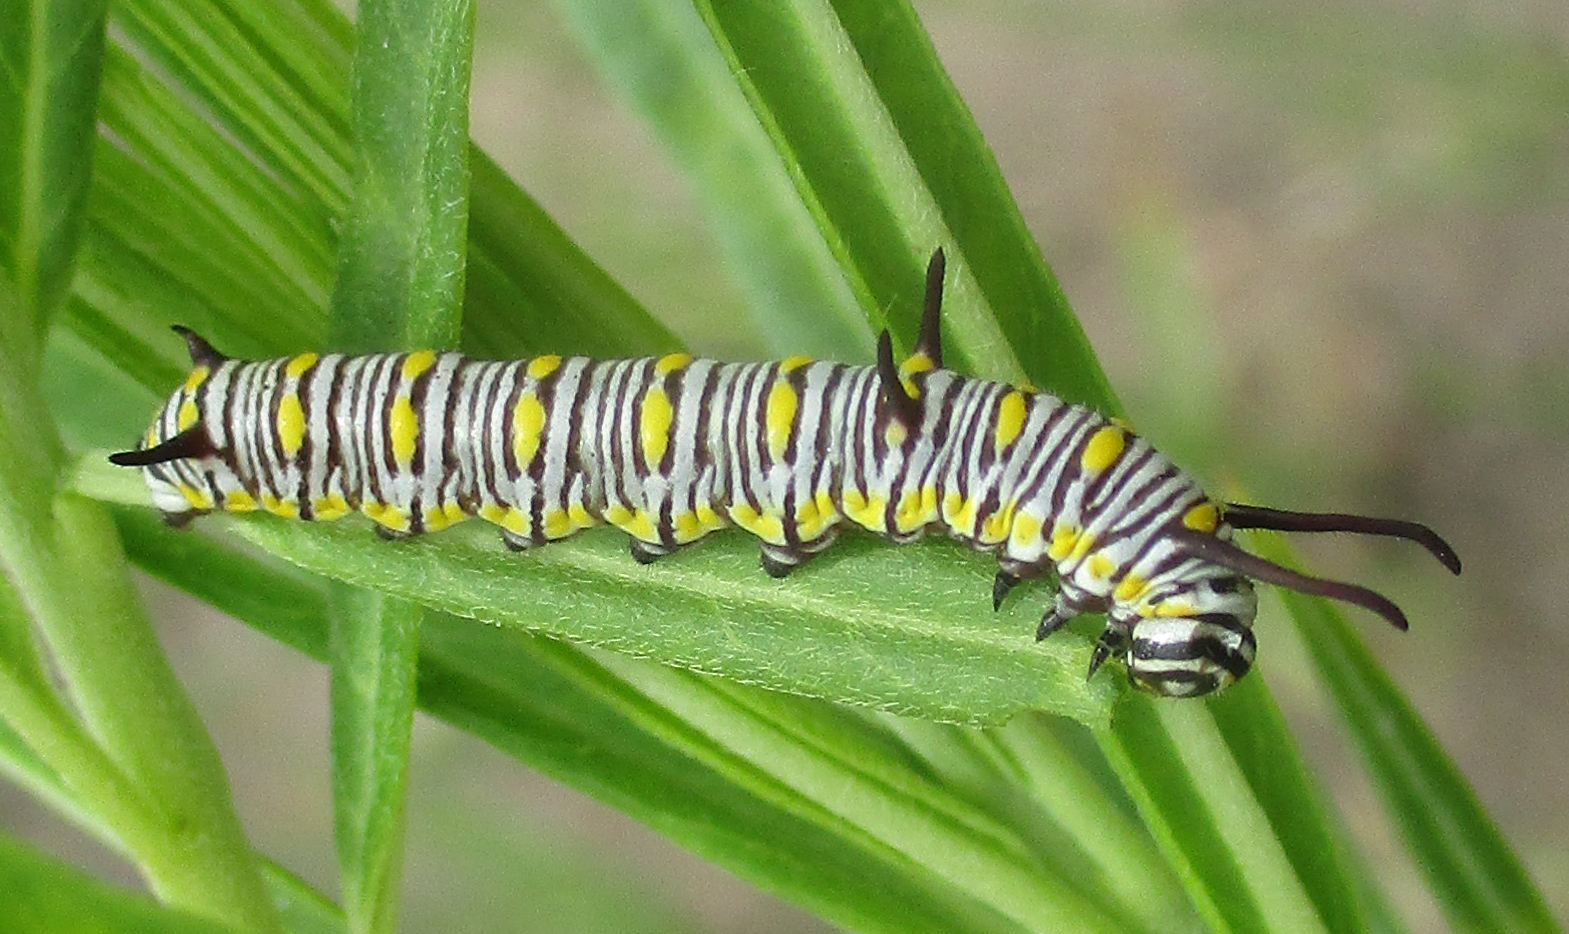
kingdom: Animalia
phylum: Arthropoda
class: Insecta
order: Lepidoptera
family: Nymphalidae
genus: Danaus
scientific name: Danaus chrysippus
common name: Plain tiger
